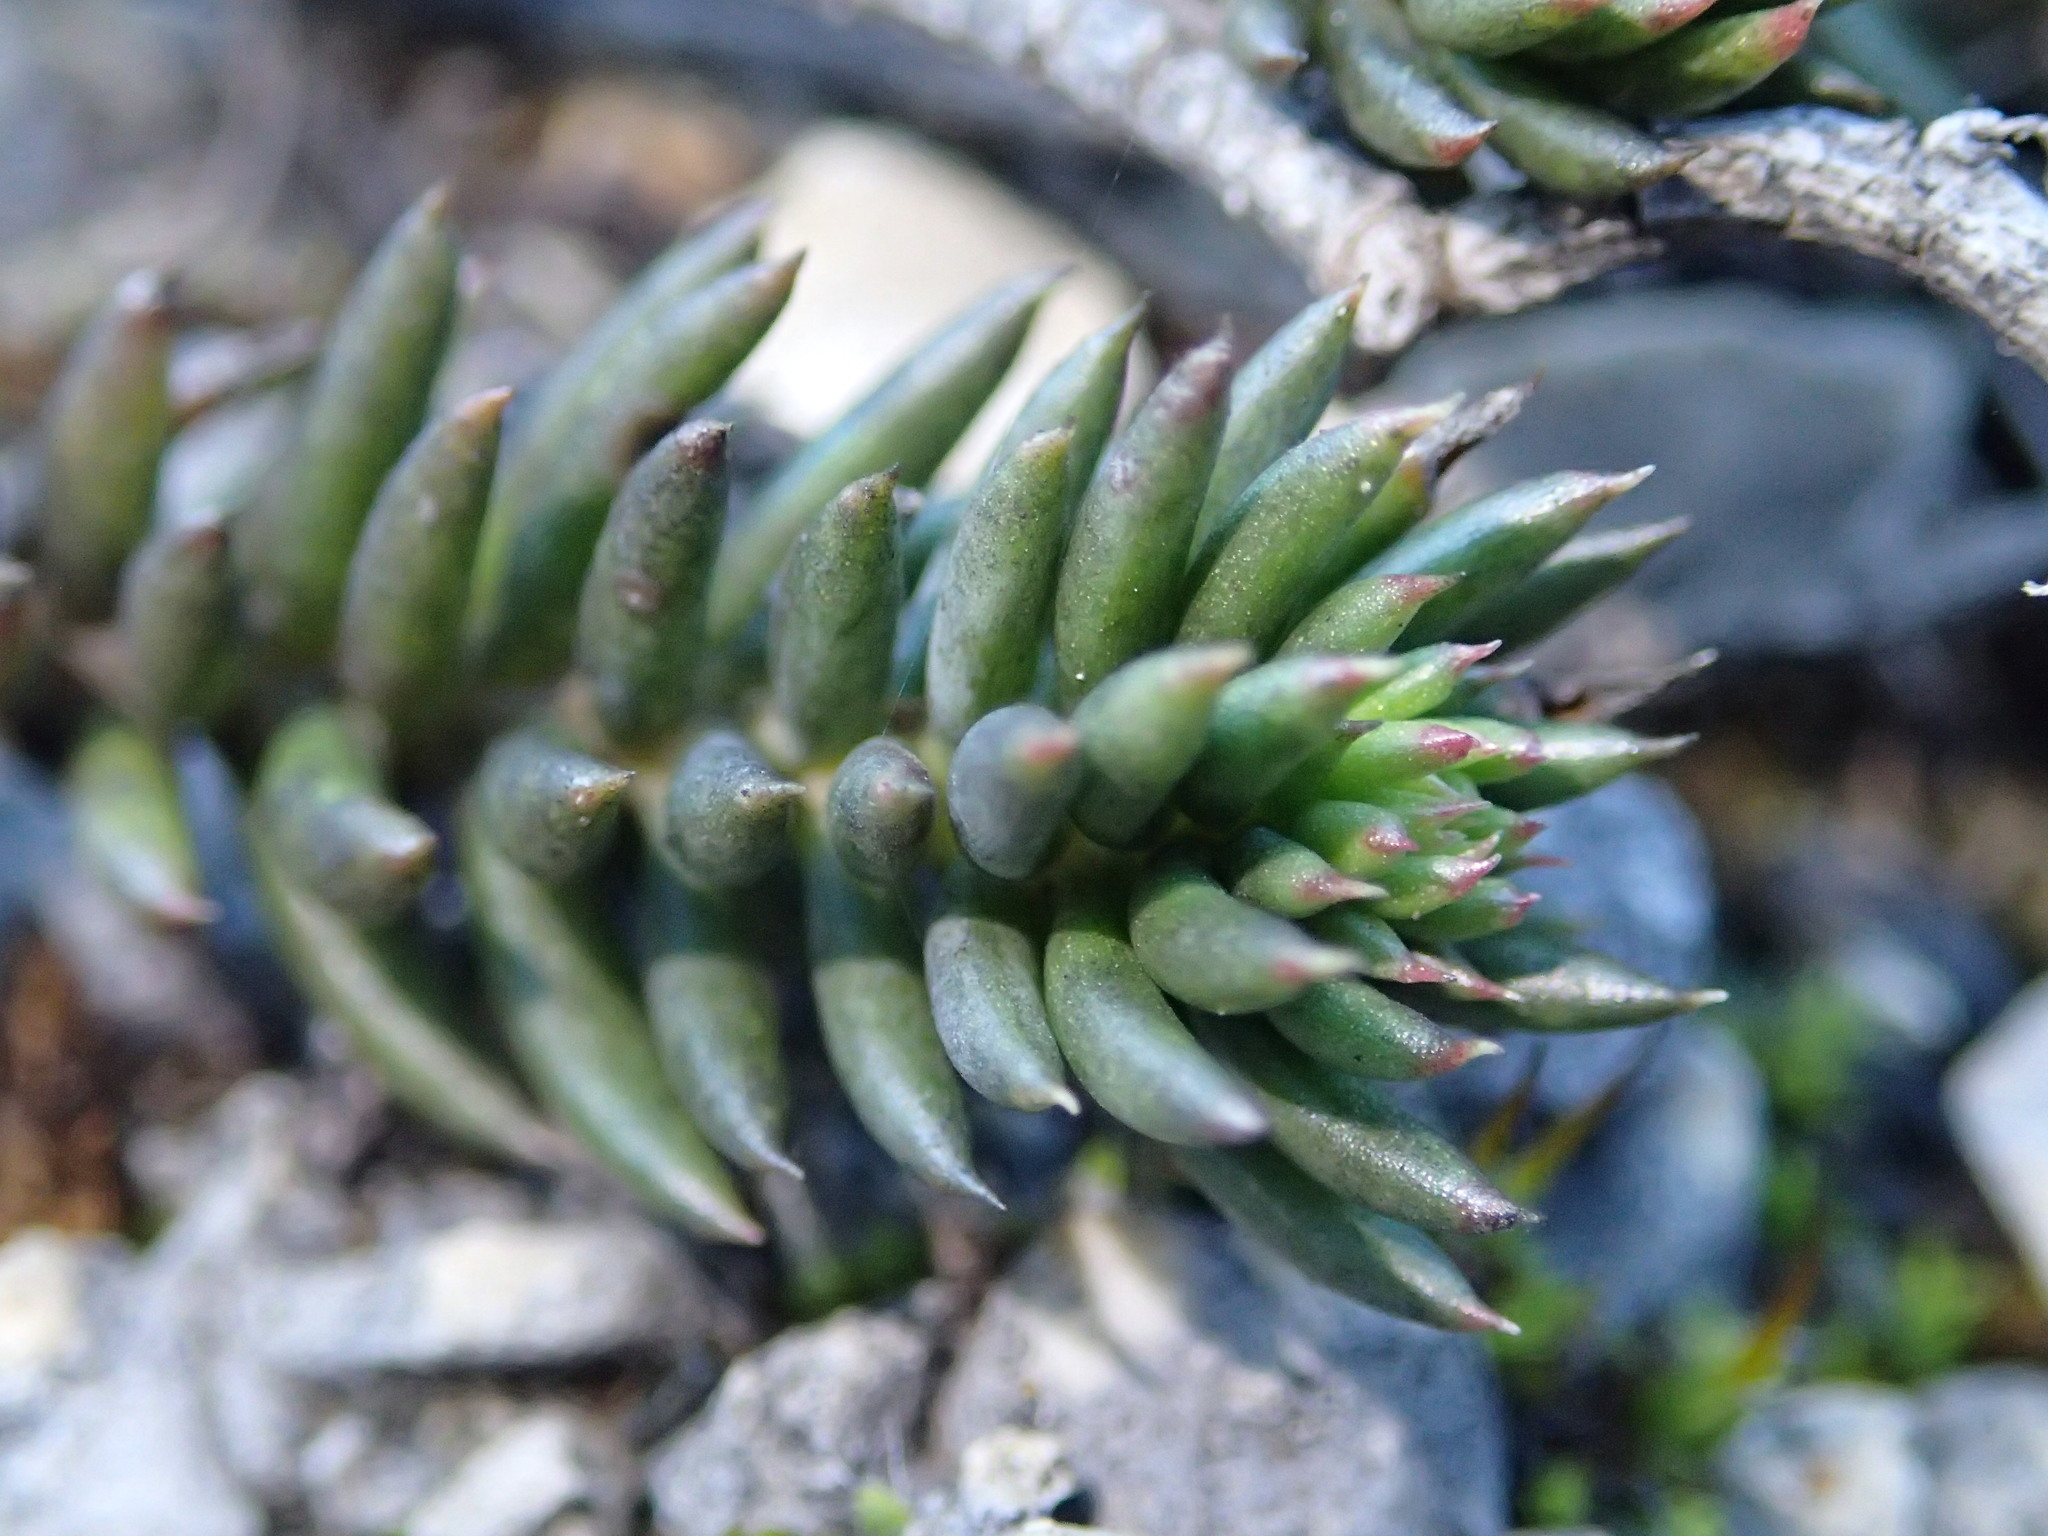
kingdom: Plantae
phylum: Tracheophyta
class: Magnoliopsida
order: Saxifragales
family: Crassulaceae
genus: Petrosedum
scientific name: Petrosedum
